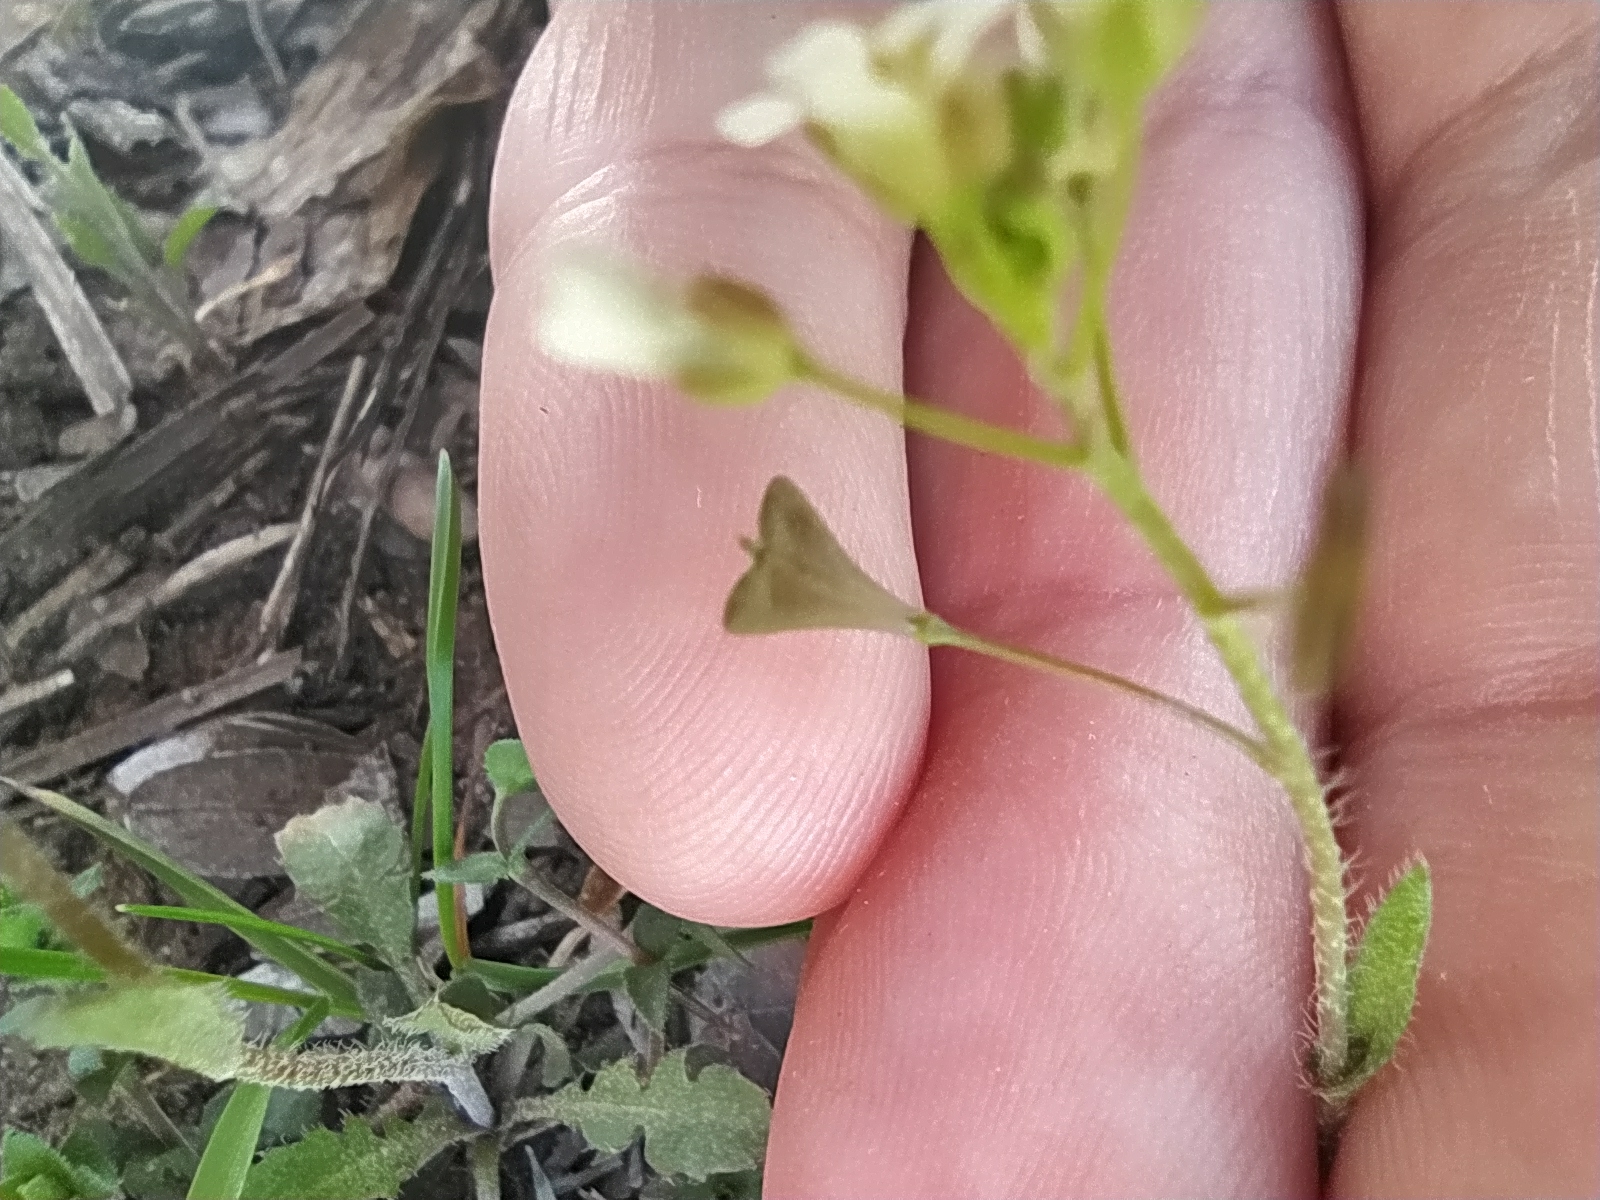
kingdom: Plantae
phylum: Tracheophyta
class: Magnoliopsida
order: Brassicales
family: Brassicaceae
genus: Capsella
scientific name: Capsella bursa-pastoris
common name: Shepherd's purse
